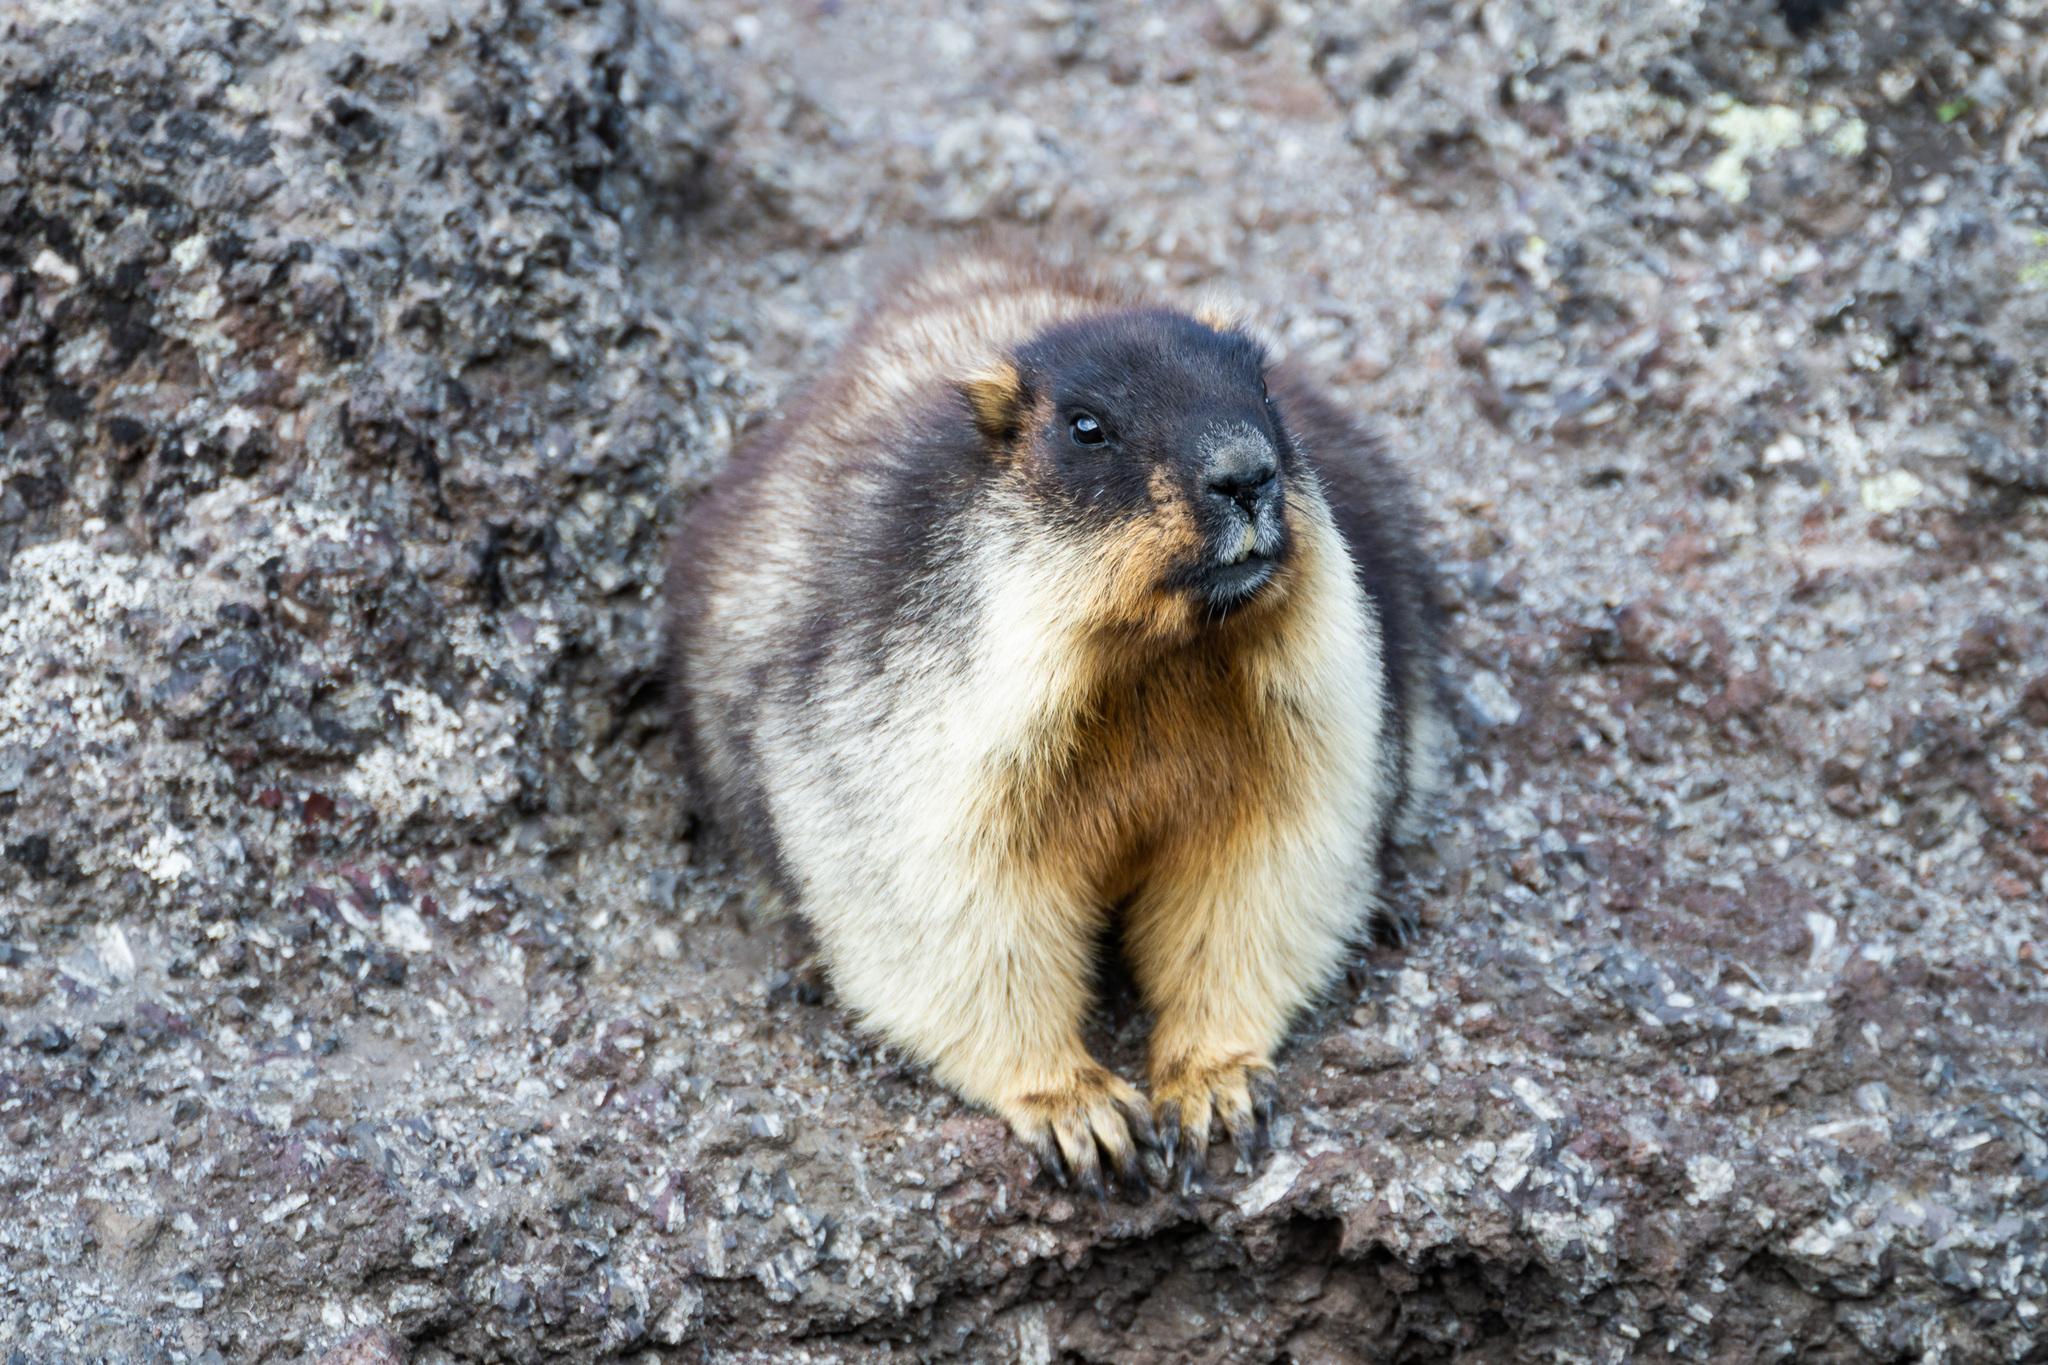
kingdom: Animalia
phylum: Chordata
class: Mammalia
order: Rodentia
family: Sciuridae
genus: Marmota
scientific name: Marmota camtschatica
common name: Black-capped marmot
